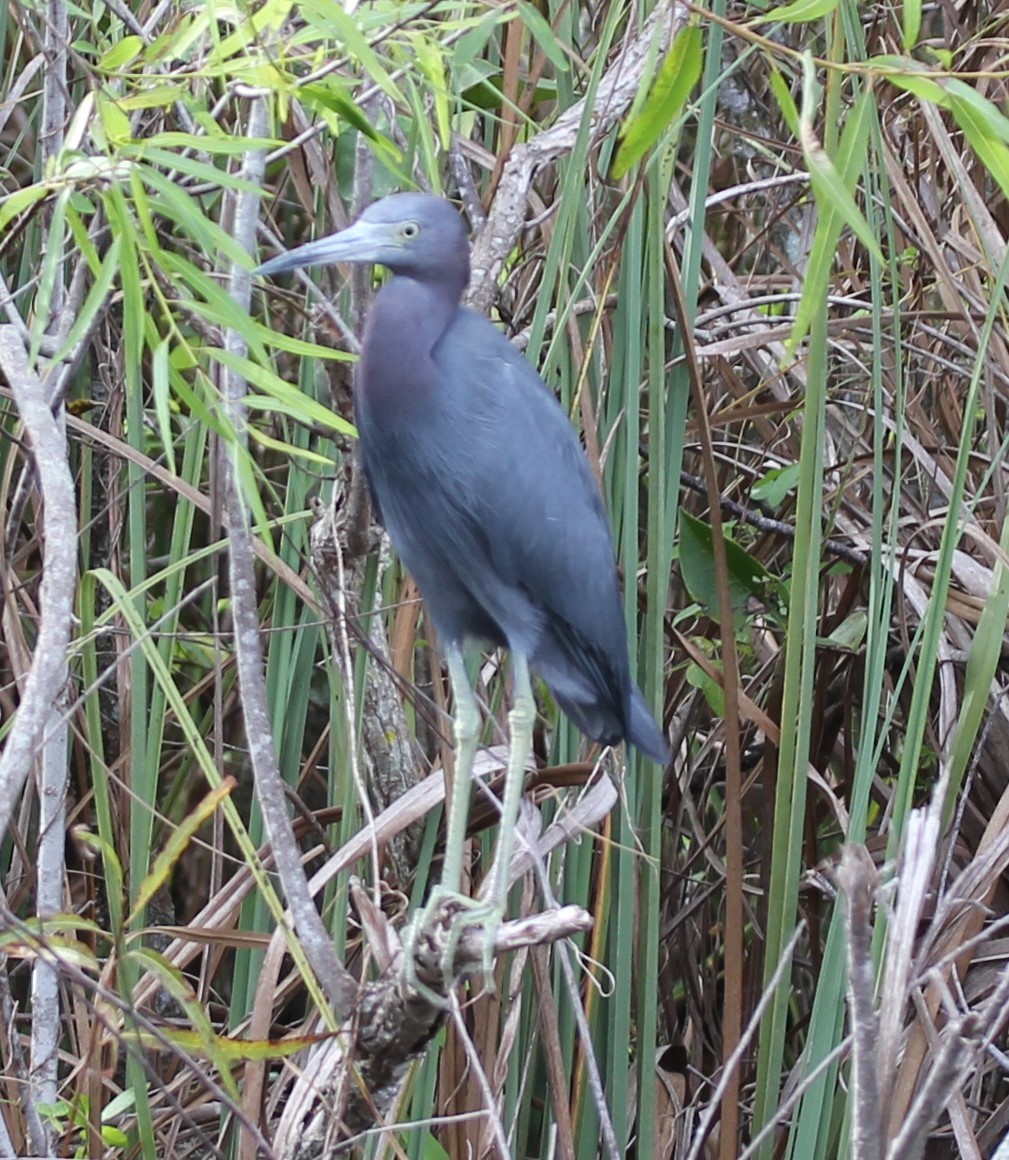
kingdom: Animalia
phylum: Chordata
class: Aves
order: Pelecaniformes
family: Ardeidae
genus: Egretta
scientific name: Egretta caerulea
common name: Little blue heron
